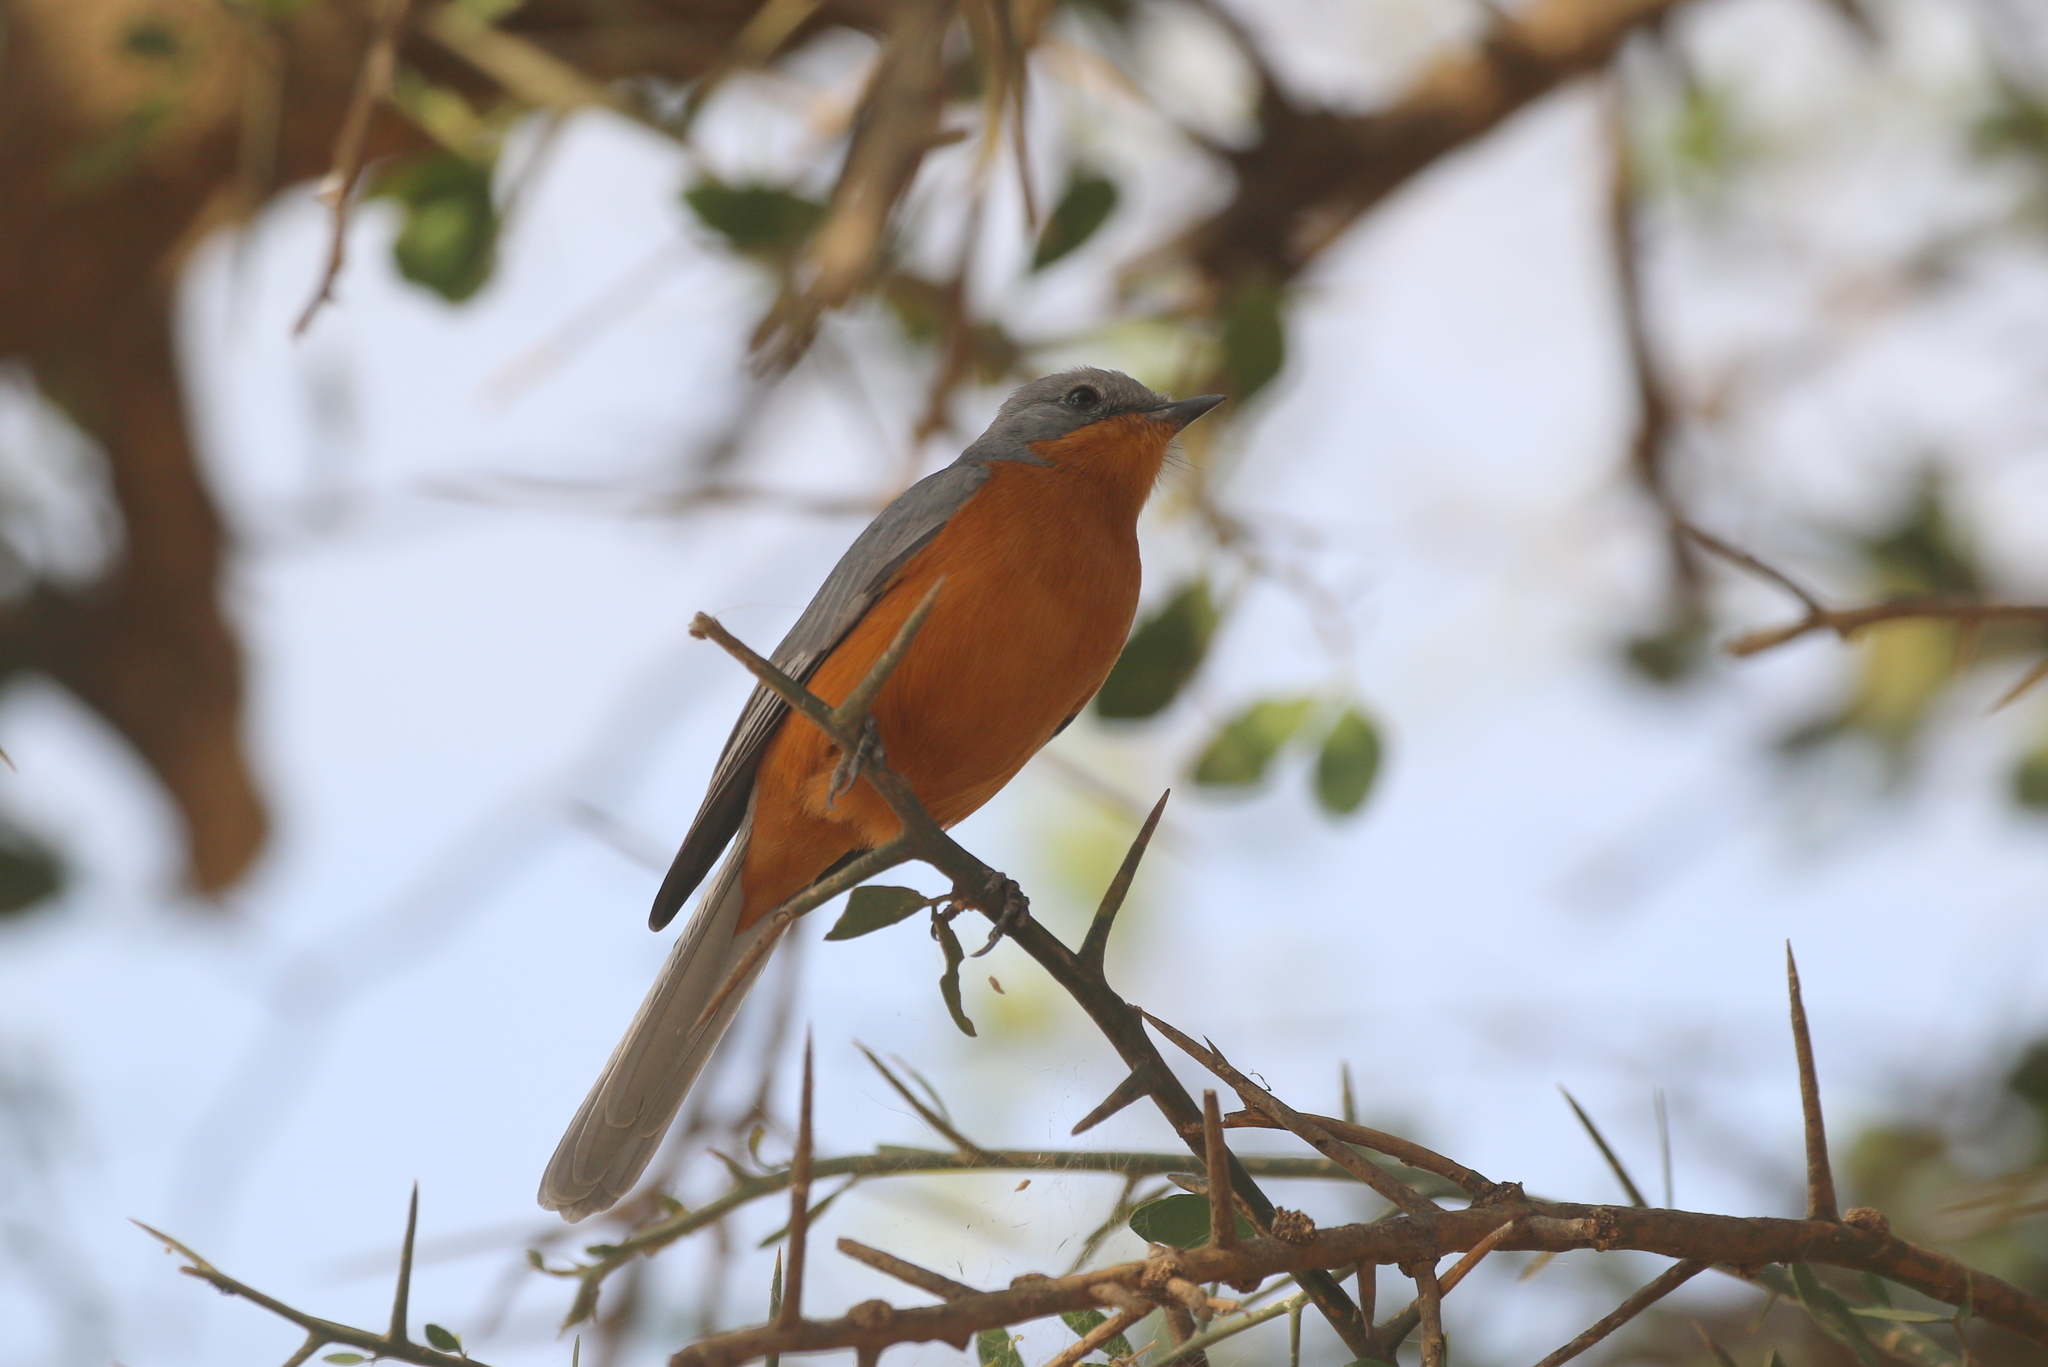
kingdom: Animalia
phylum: Chordata
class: Aves
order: Passeriformes
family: Muscicapidae
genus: Empidornis
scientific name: Empidornis semipartitus
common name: Silverbird
